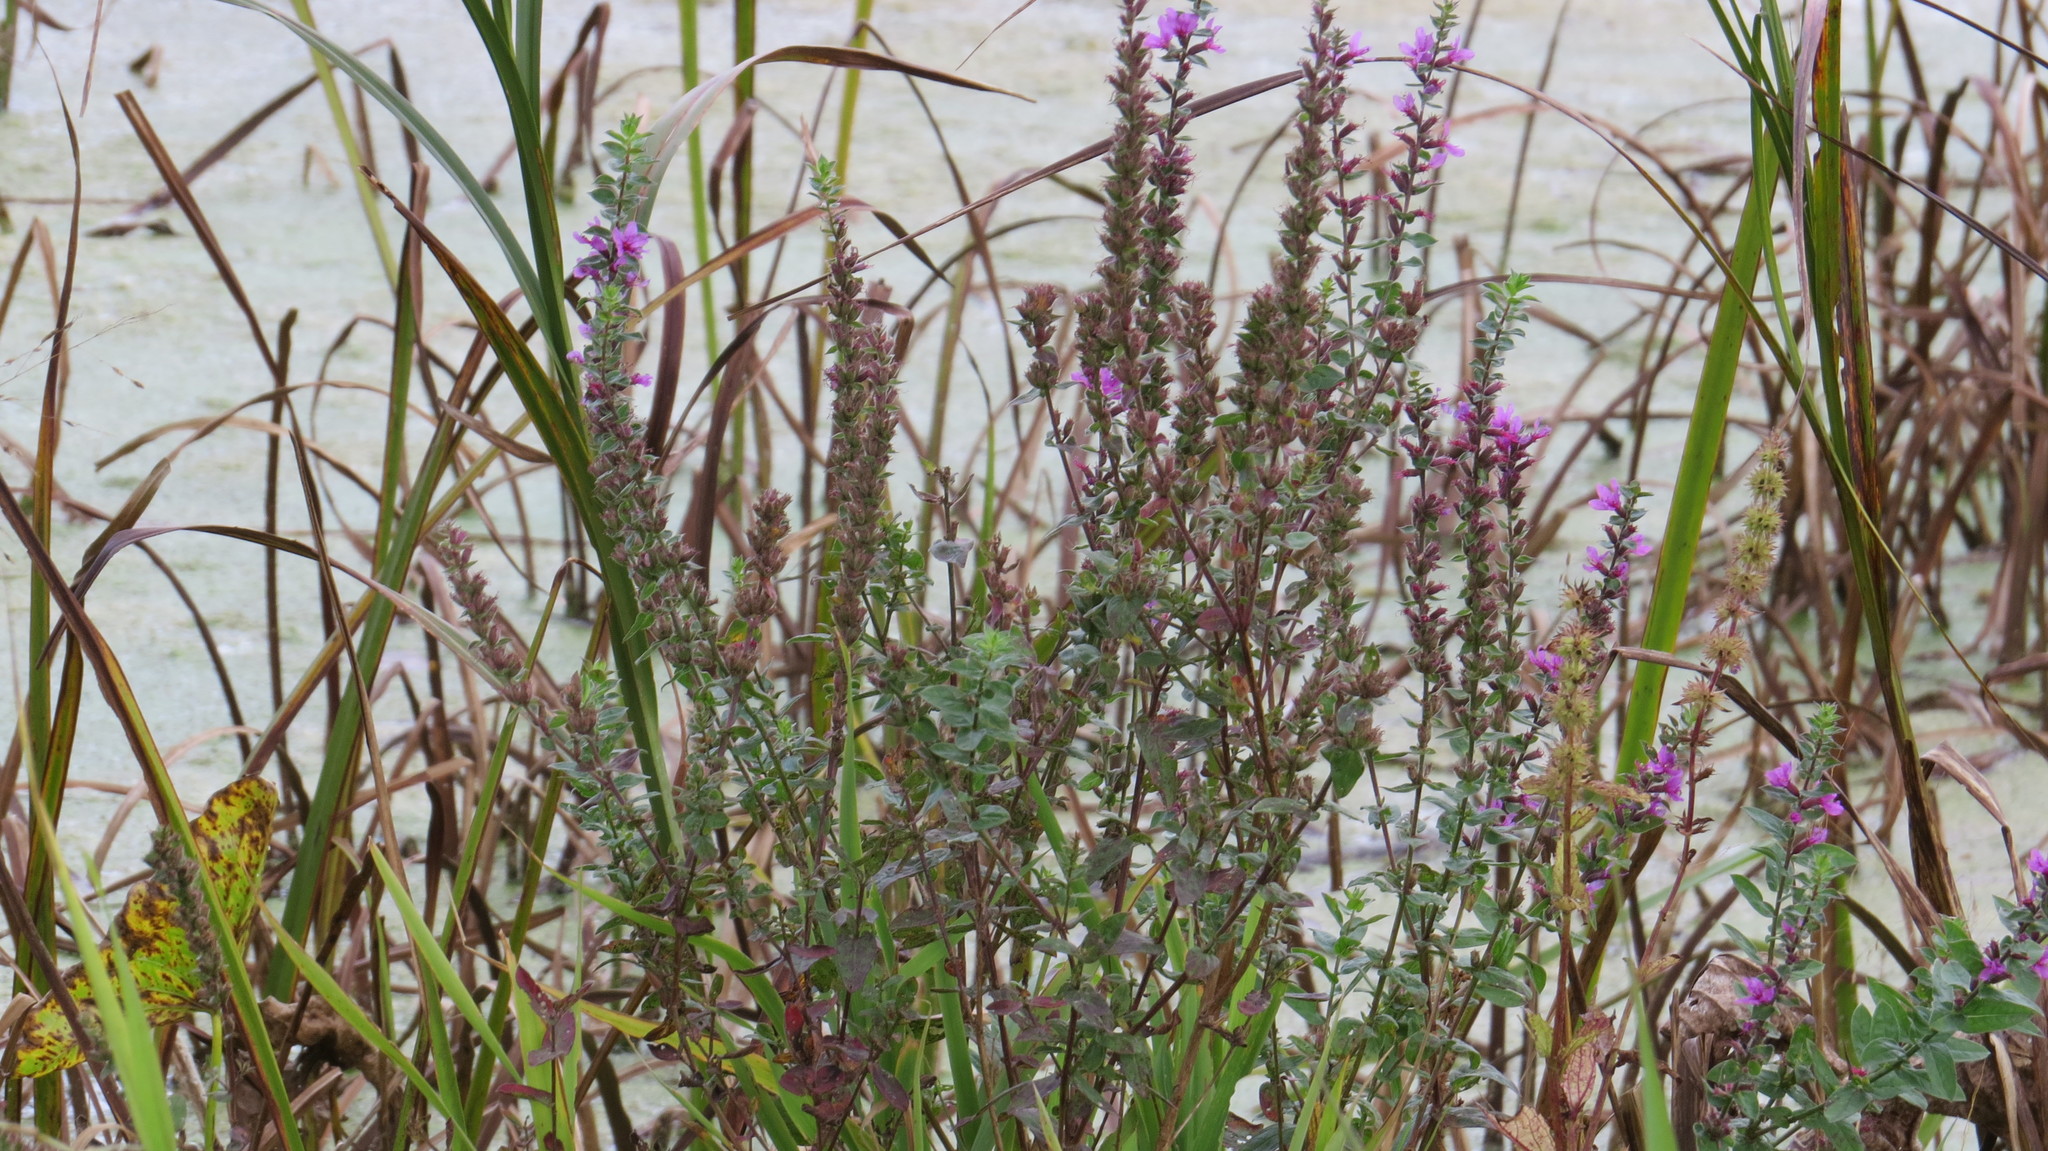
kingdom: Plantae
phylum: Tracheophyta
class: Magnoliopsida
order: Myrtales
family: Lythraceae
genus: Lythrum
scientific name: Lythrum salicaria
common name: Purple loosestrife
